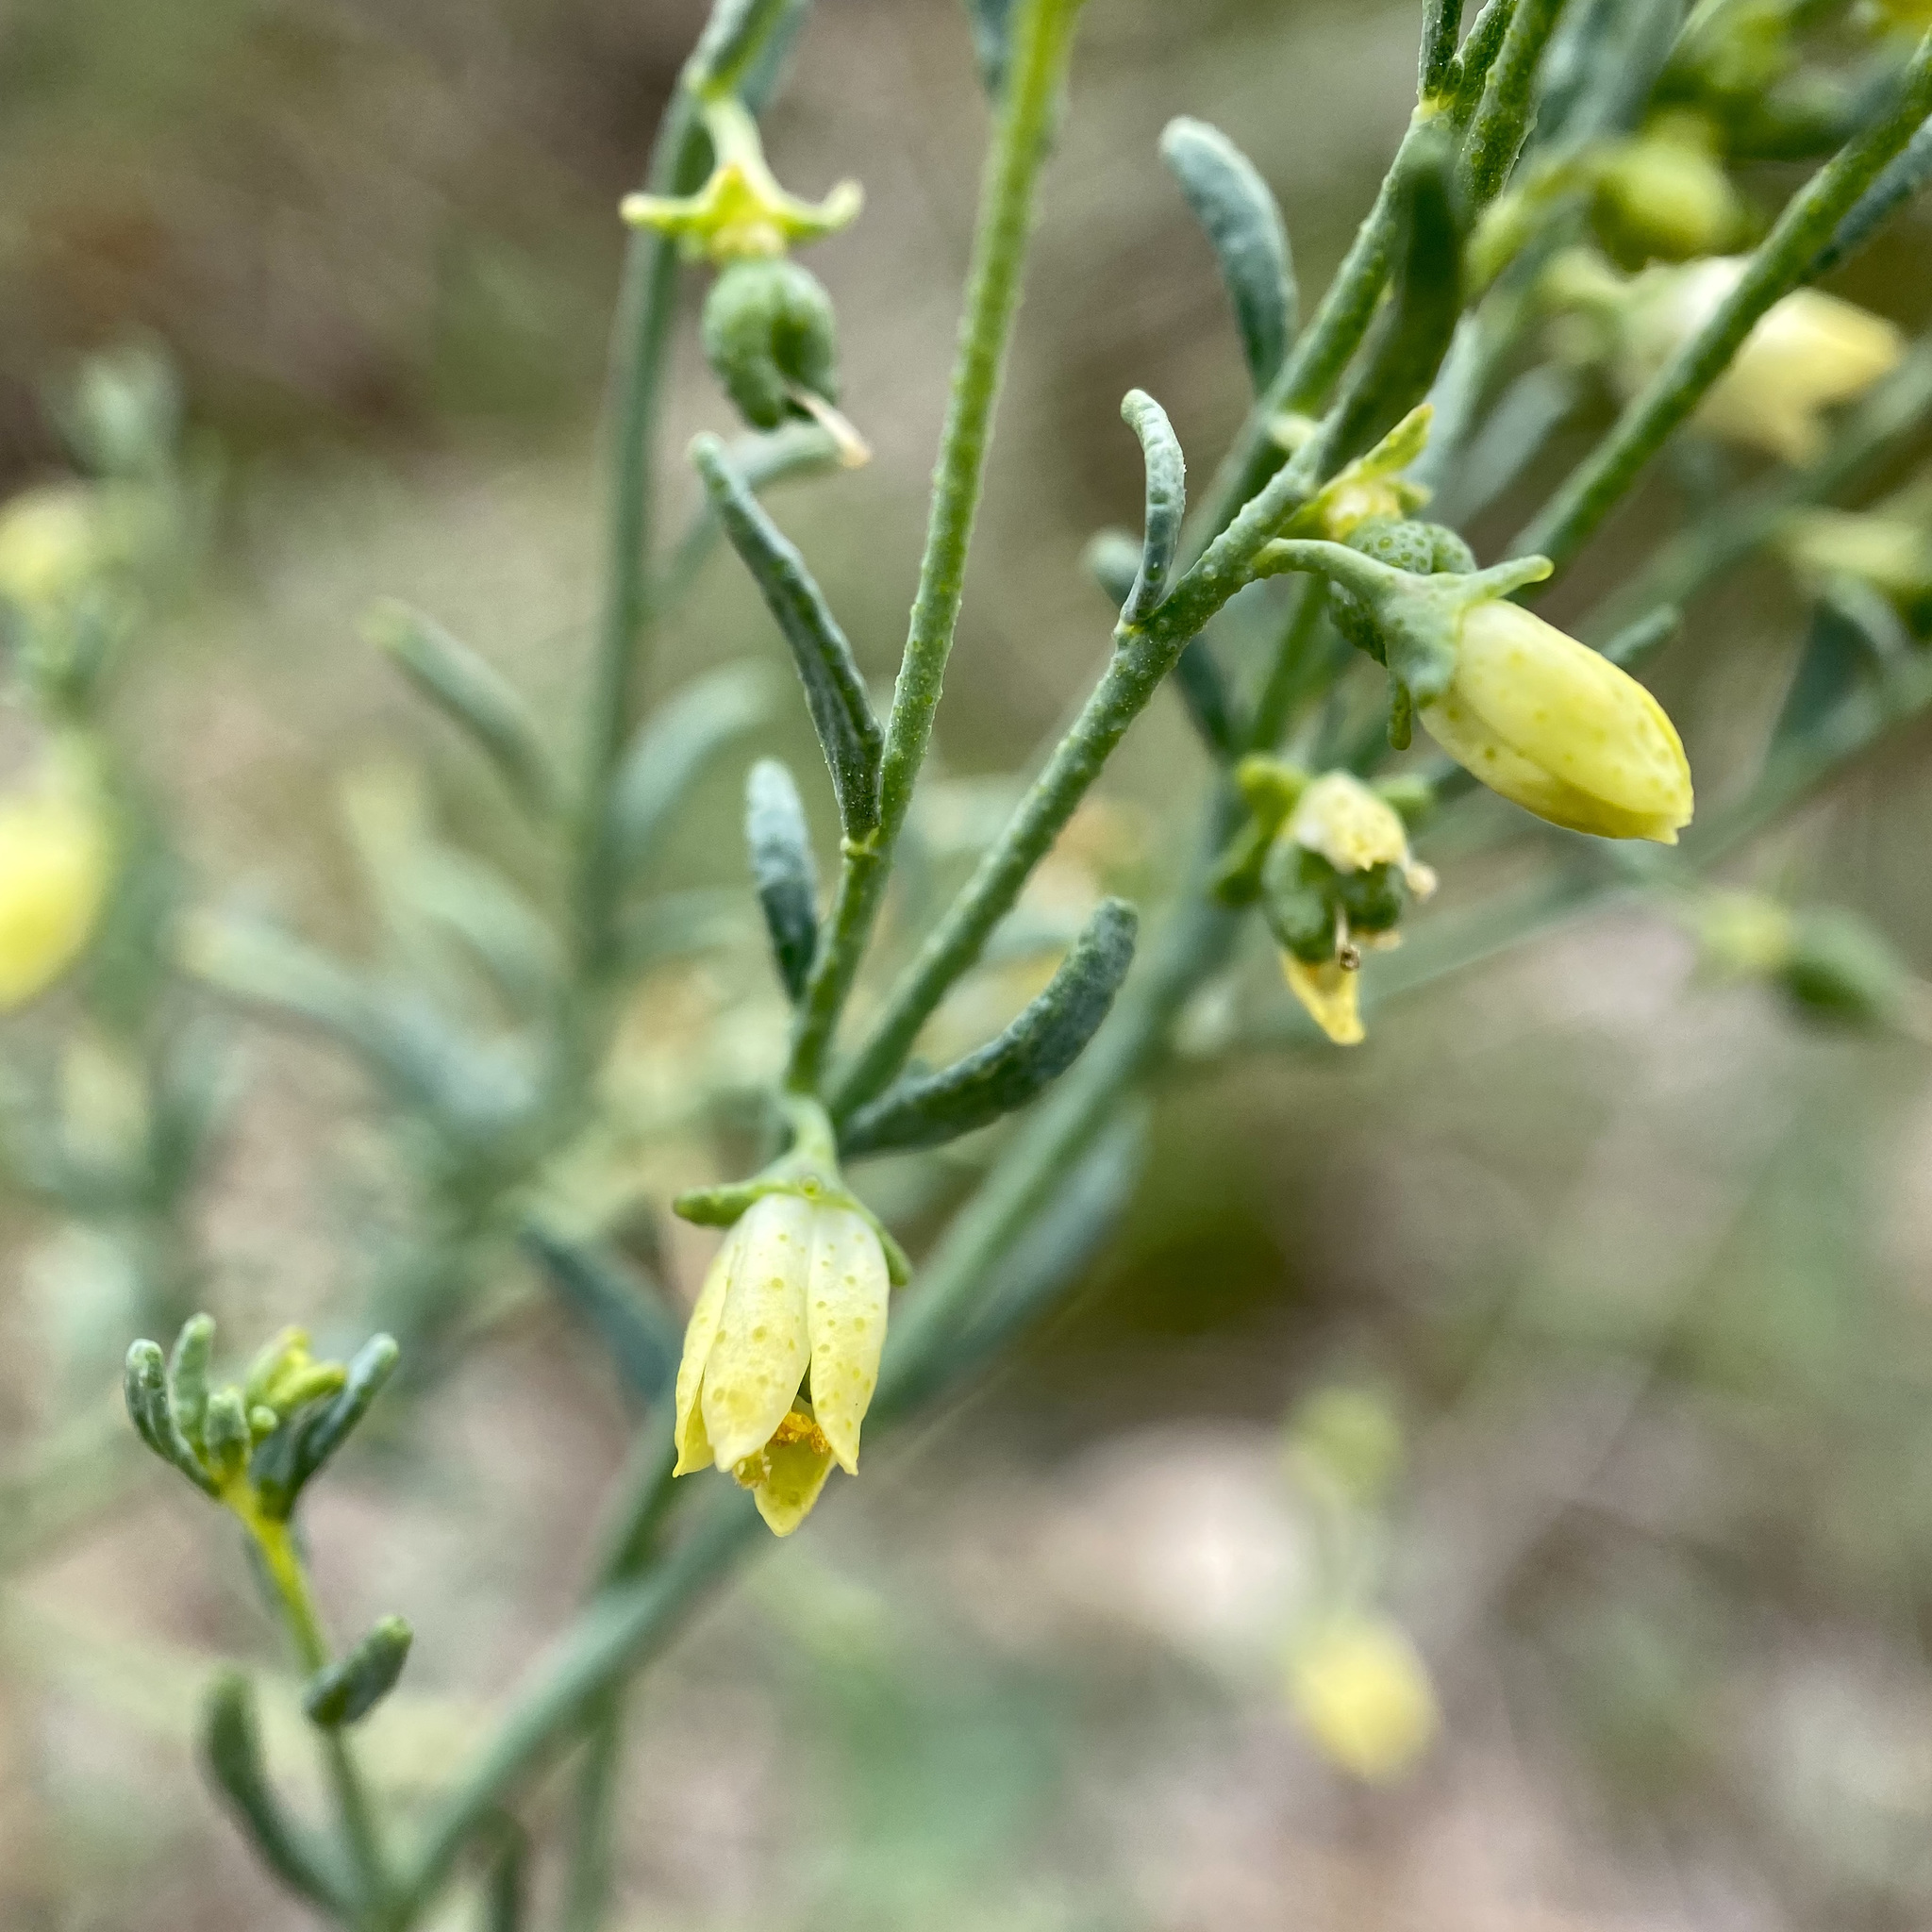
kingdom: Plantae
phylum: Tracheophyta
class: Magnoliopsida
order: Sapindales
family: Rutaceae
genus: Thamnosma
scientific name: Thamnosma texana
